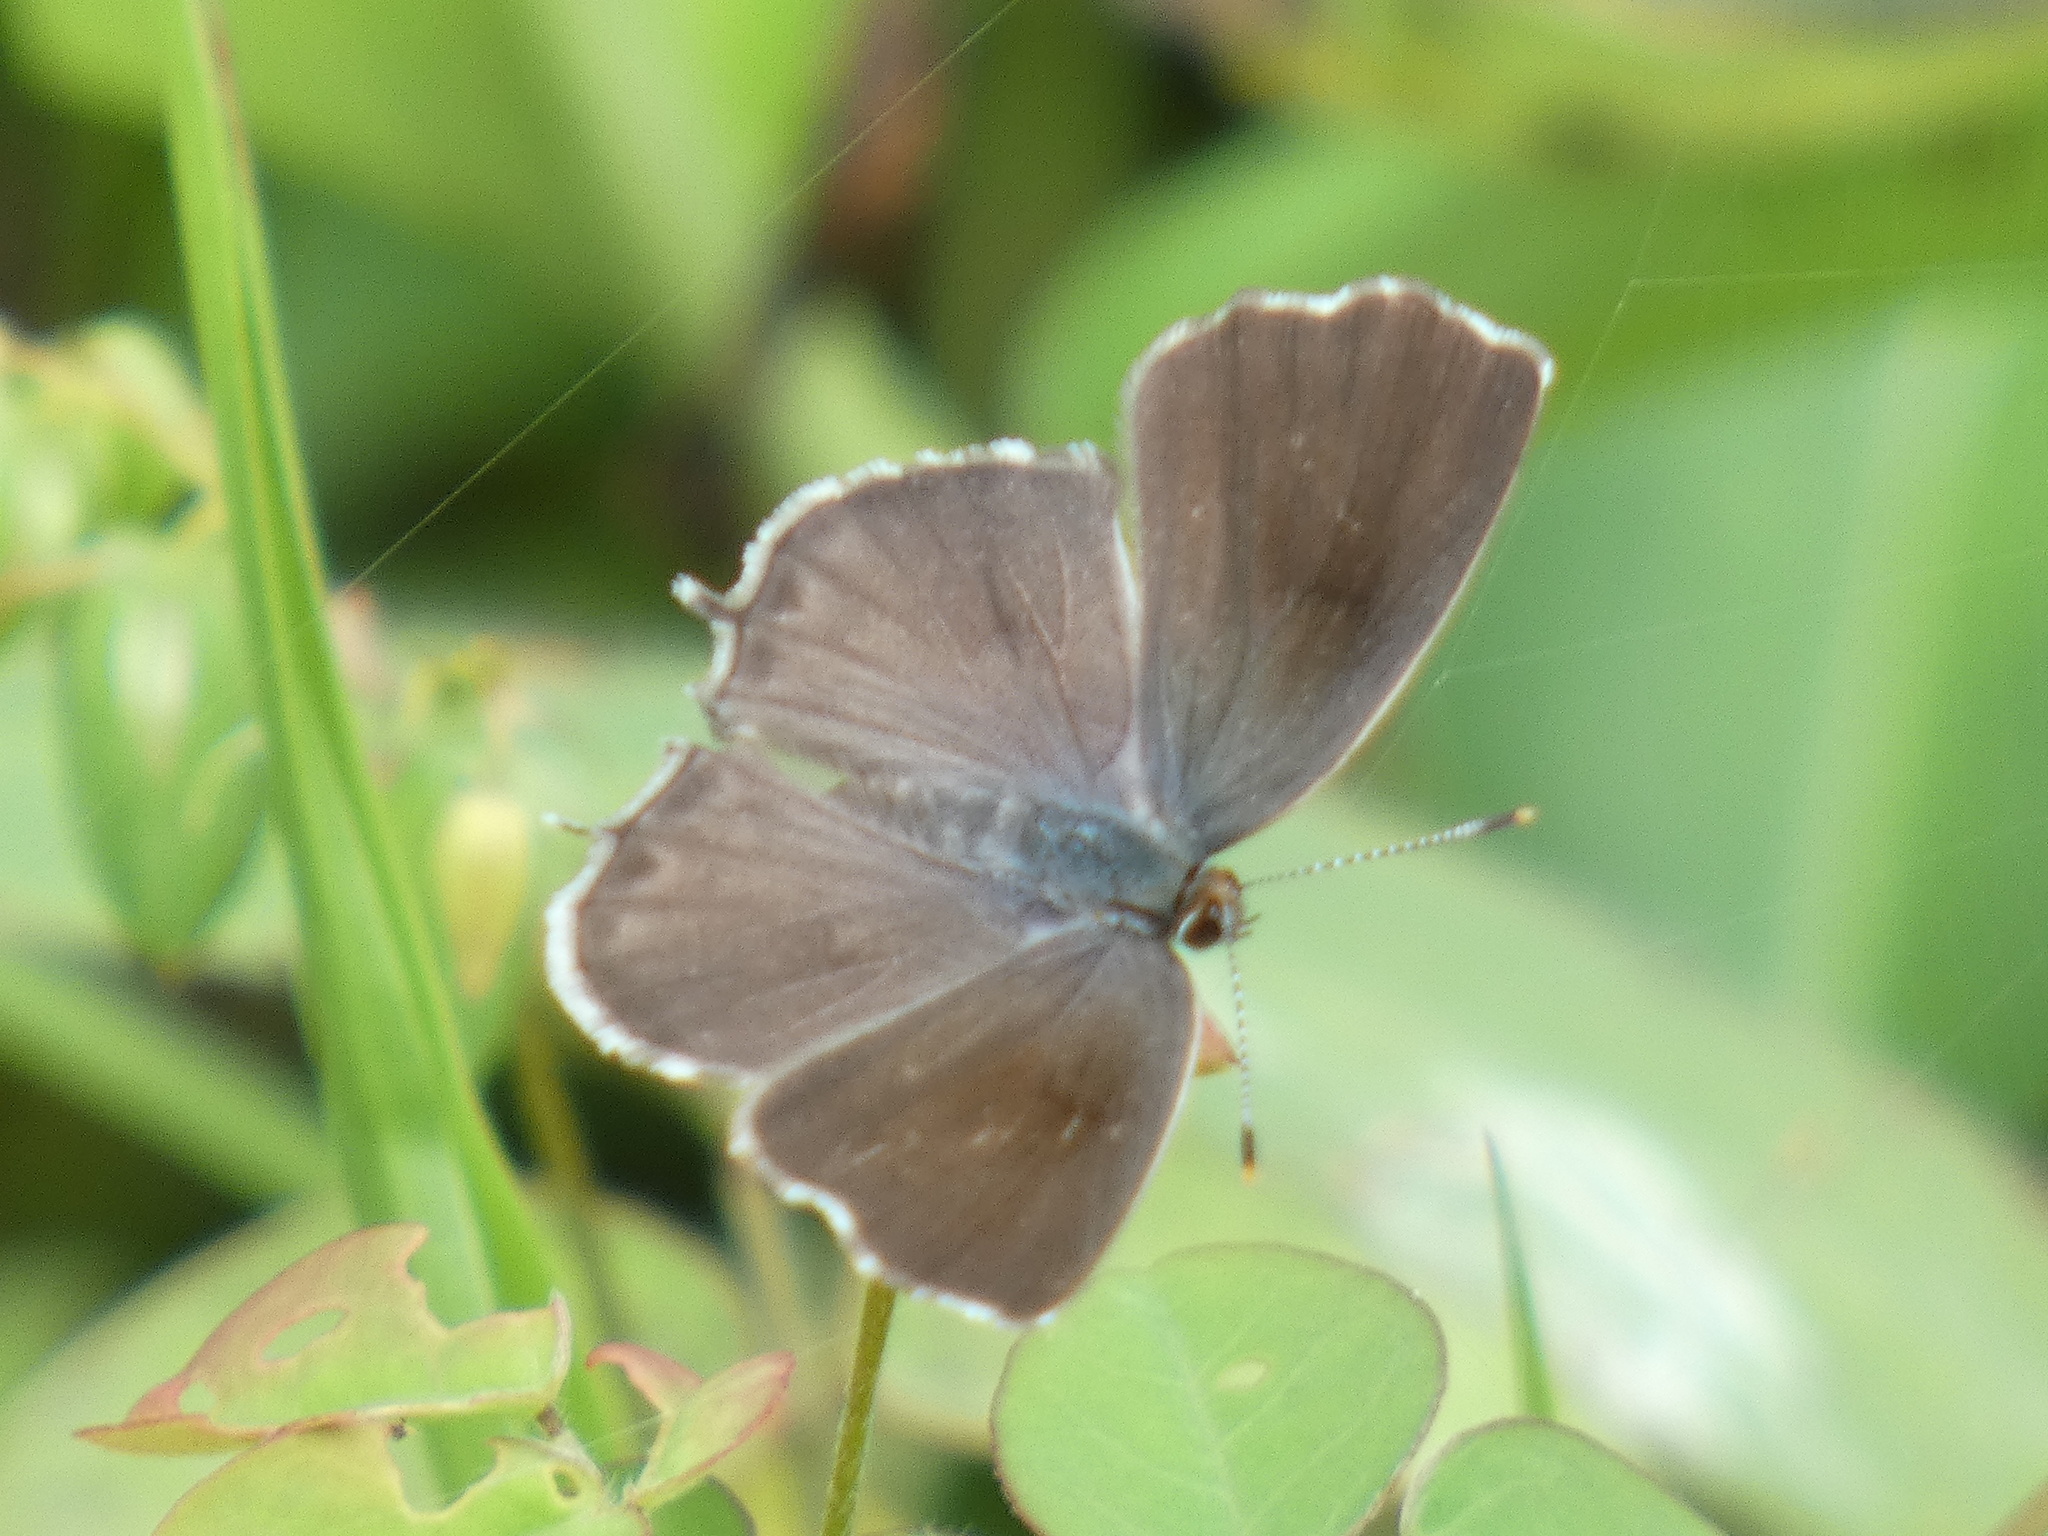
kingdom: Animalia
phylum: Arthropoda
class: Insecta
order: Lepidoptera
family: Lycaenidae
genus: Strymon
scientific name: Strymon
